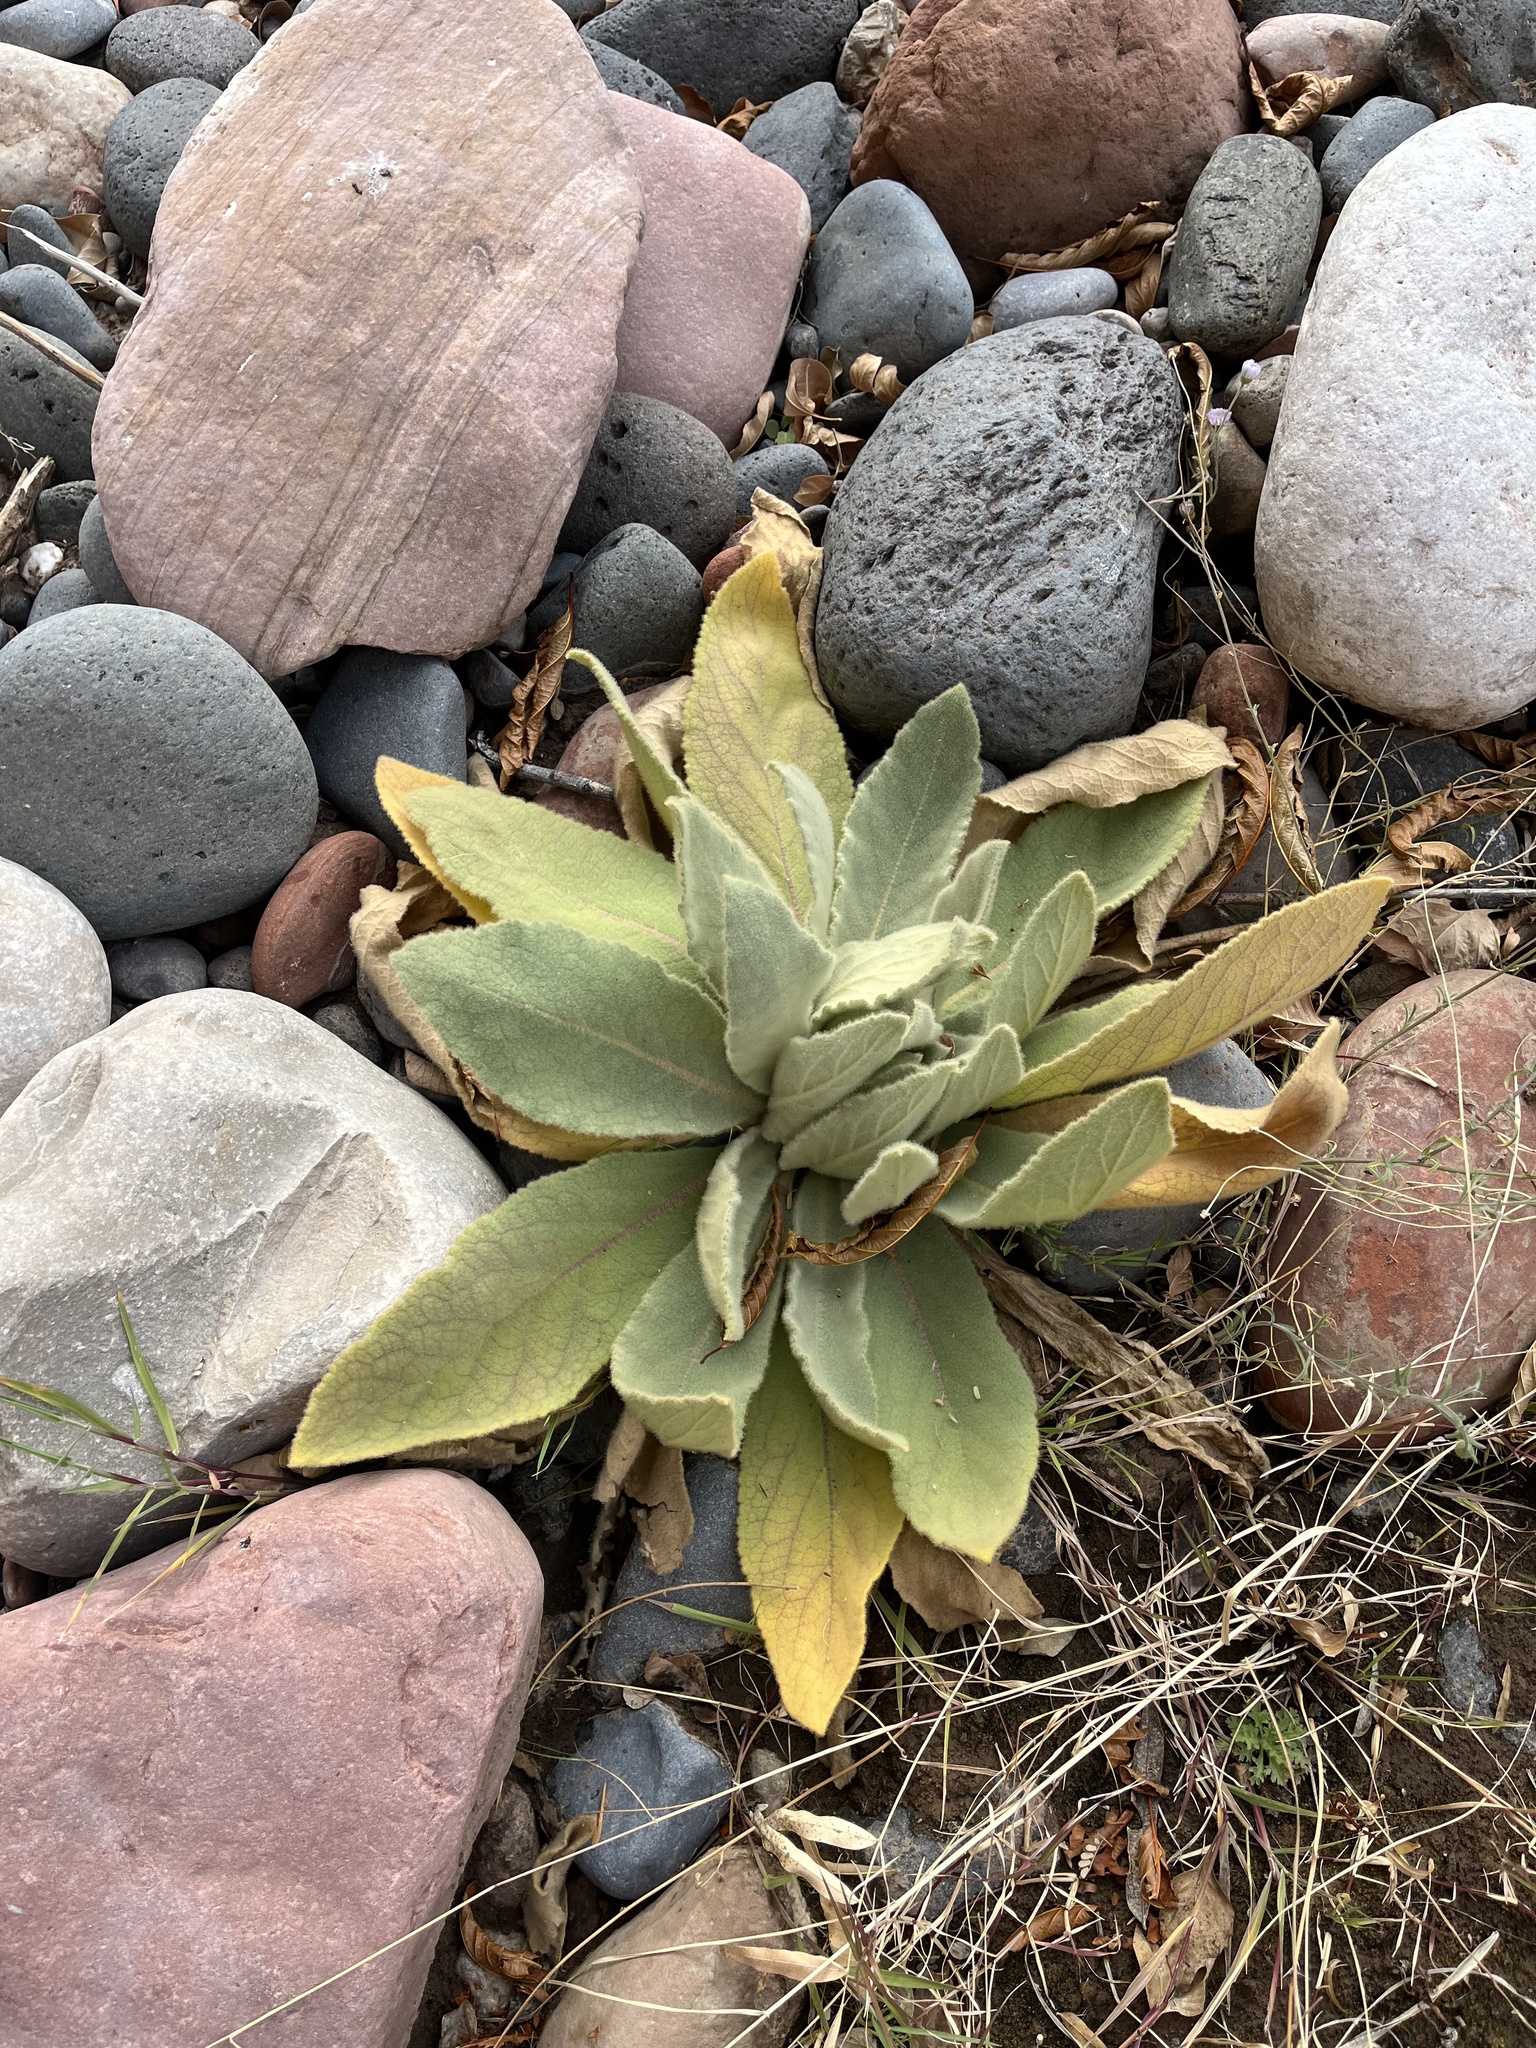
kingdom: Plantae
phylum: Tracheophyta
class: Magnoliopsida
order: Lamiales
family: Scrophulariaceae
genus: Verbascum
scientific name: Verbascum thapsus
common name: Common mullein
